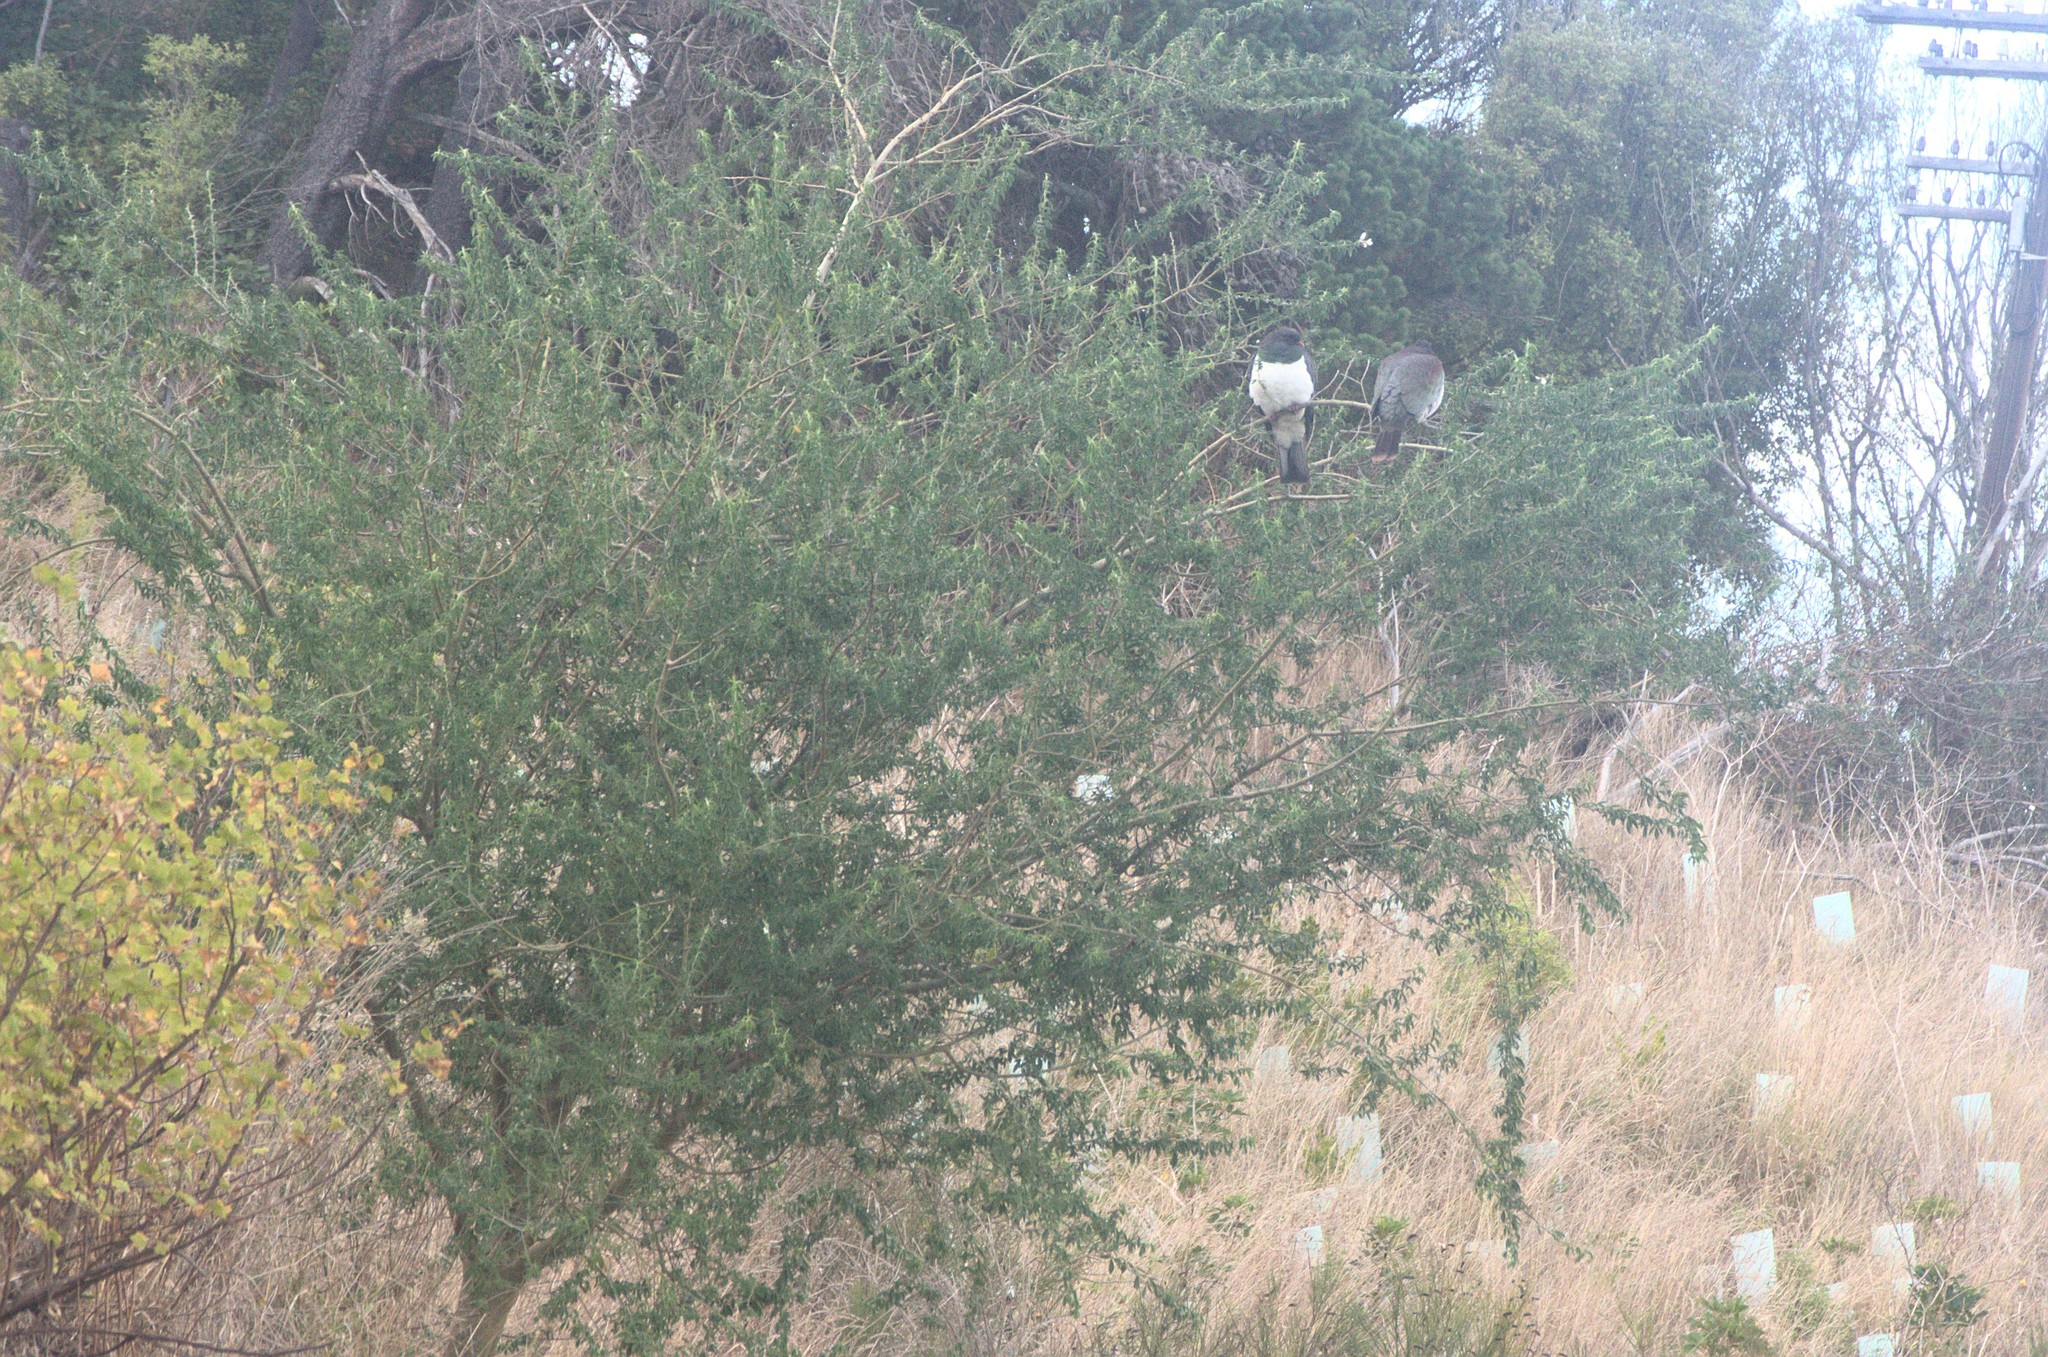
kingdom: Plantae
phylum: Tracheophyta
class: Magnoliopsida
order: Fabales
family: Fabaceae
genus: Chamaecytisus
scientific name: Chamaecytisus prolifer
